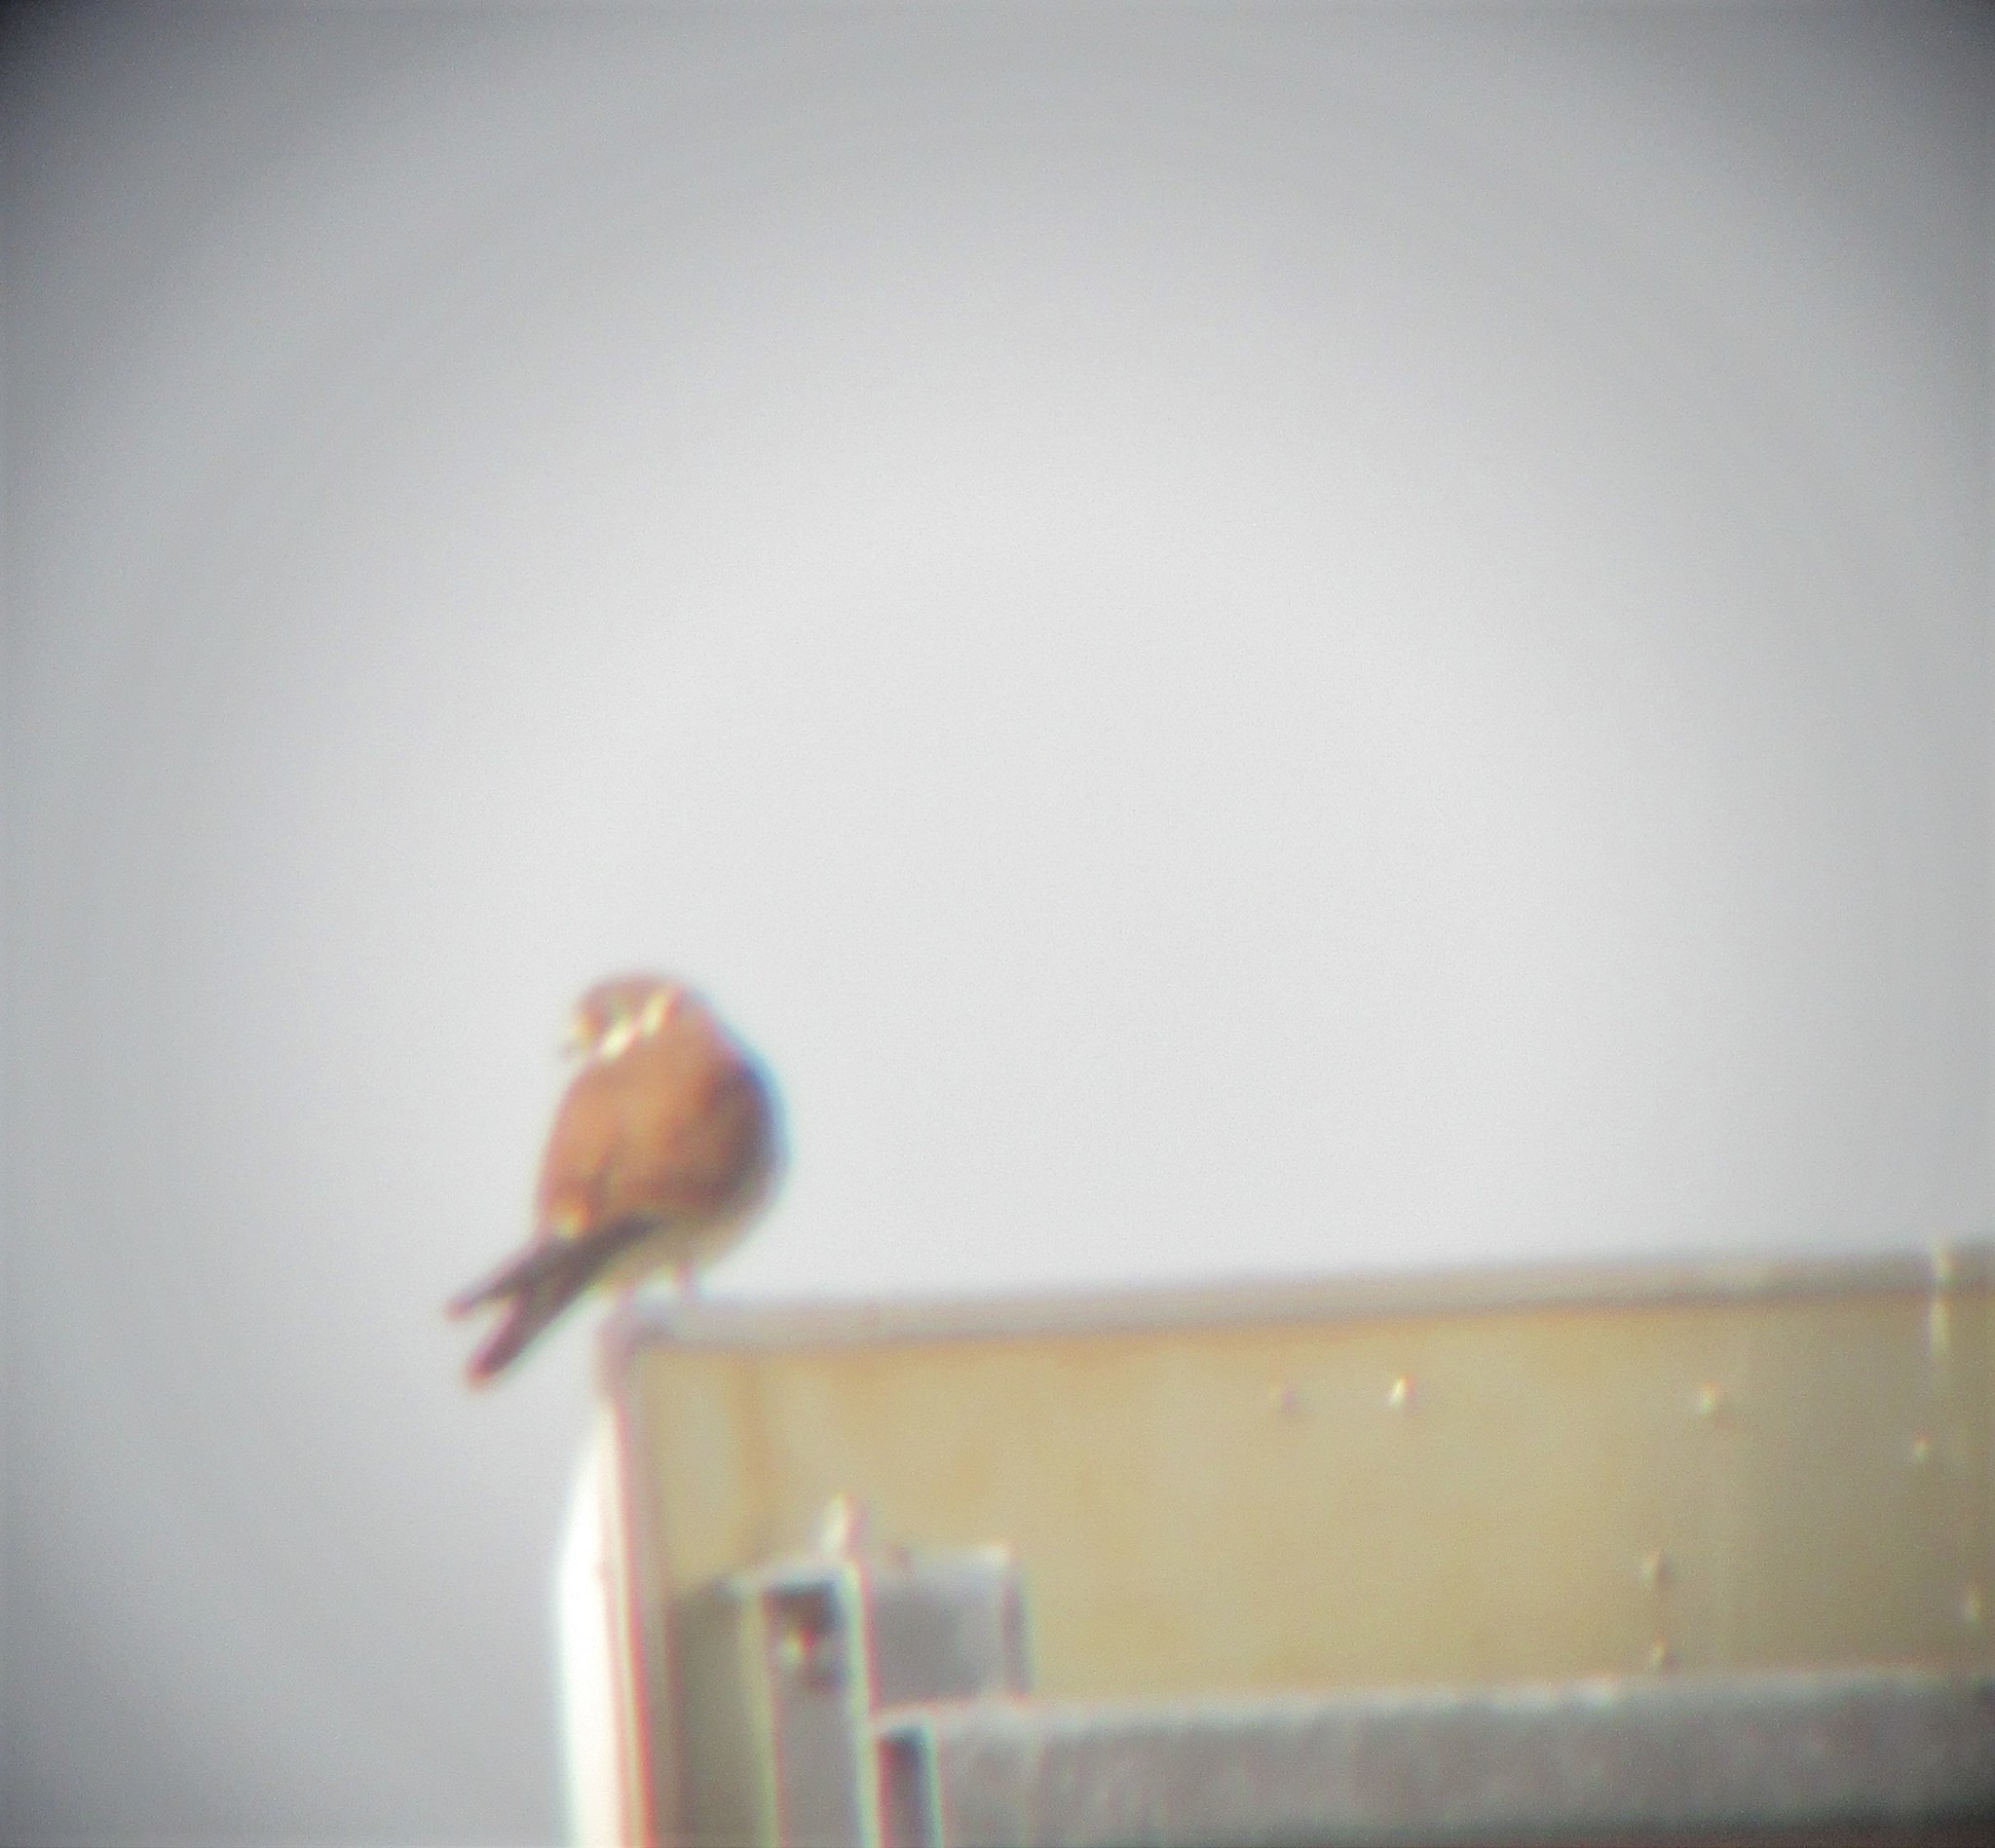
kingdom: Animalia
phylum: Chordata
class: Aves
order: Falconiformes
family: Falconidae
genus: Falco
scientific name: Falco sparverius
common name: American kestrel
